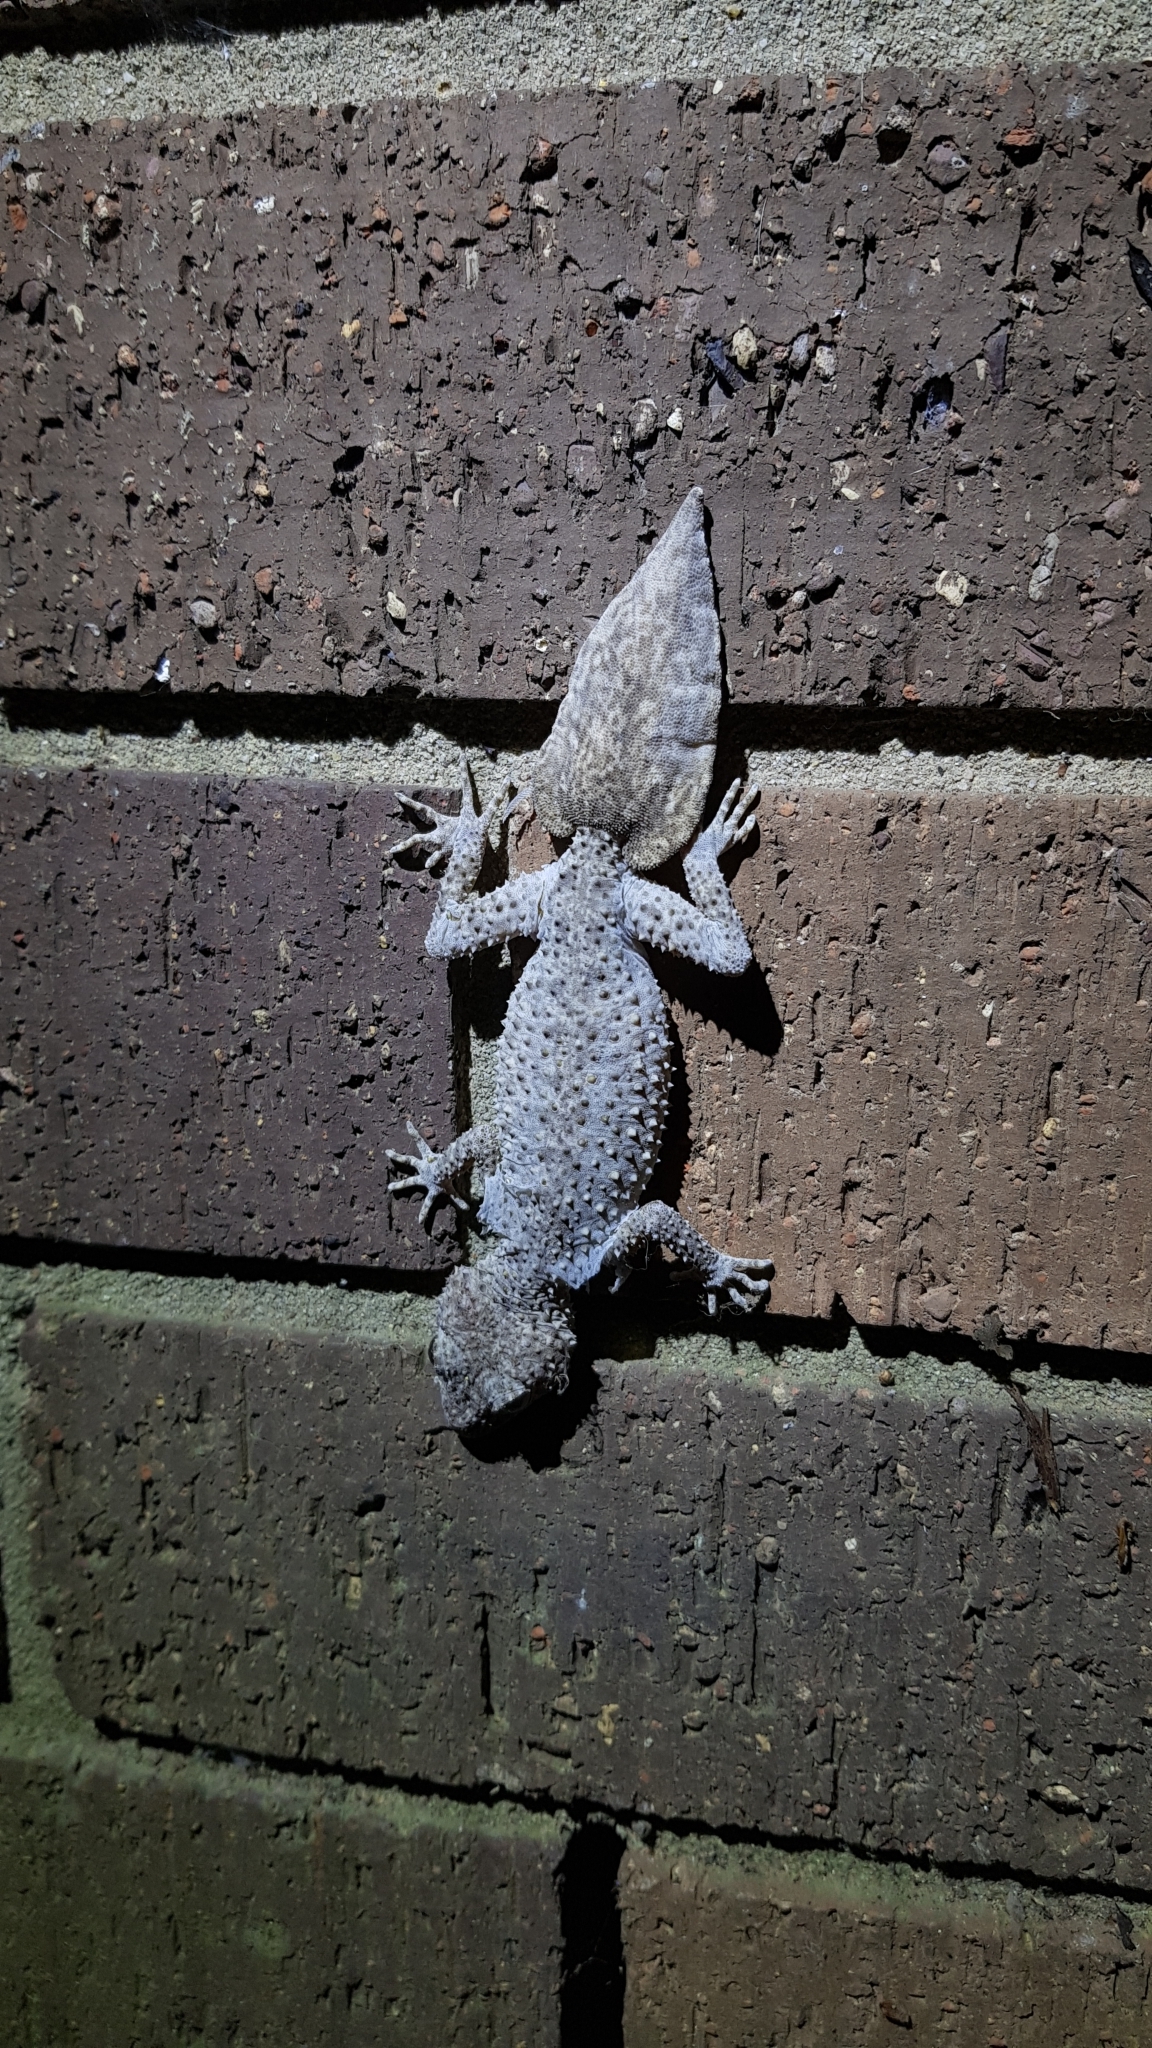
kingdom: Animalia
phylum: Chordata
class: Squamata
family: Carphodactylidae
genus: Phyllurus
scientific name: Phyllurus platurus
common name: Broad-tailed gecko
